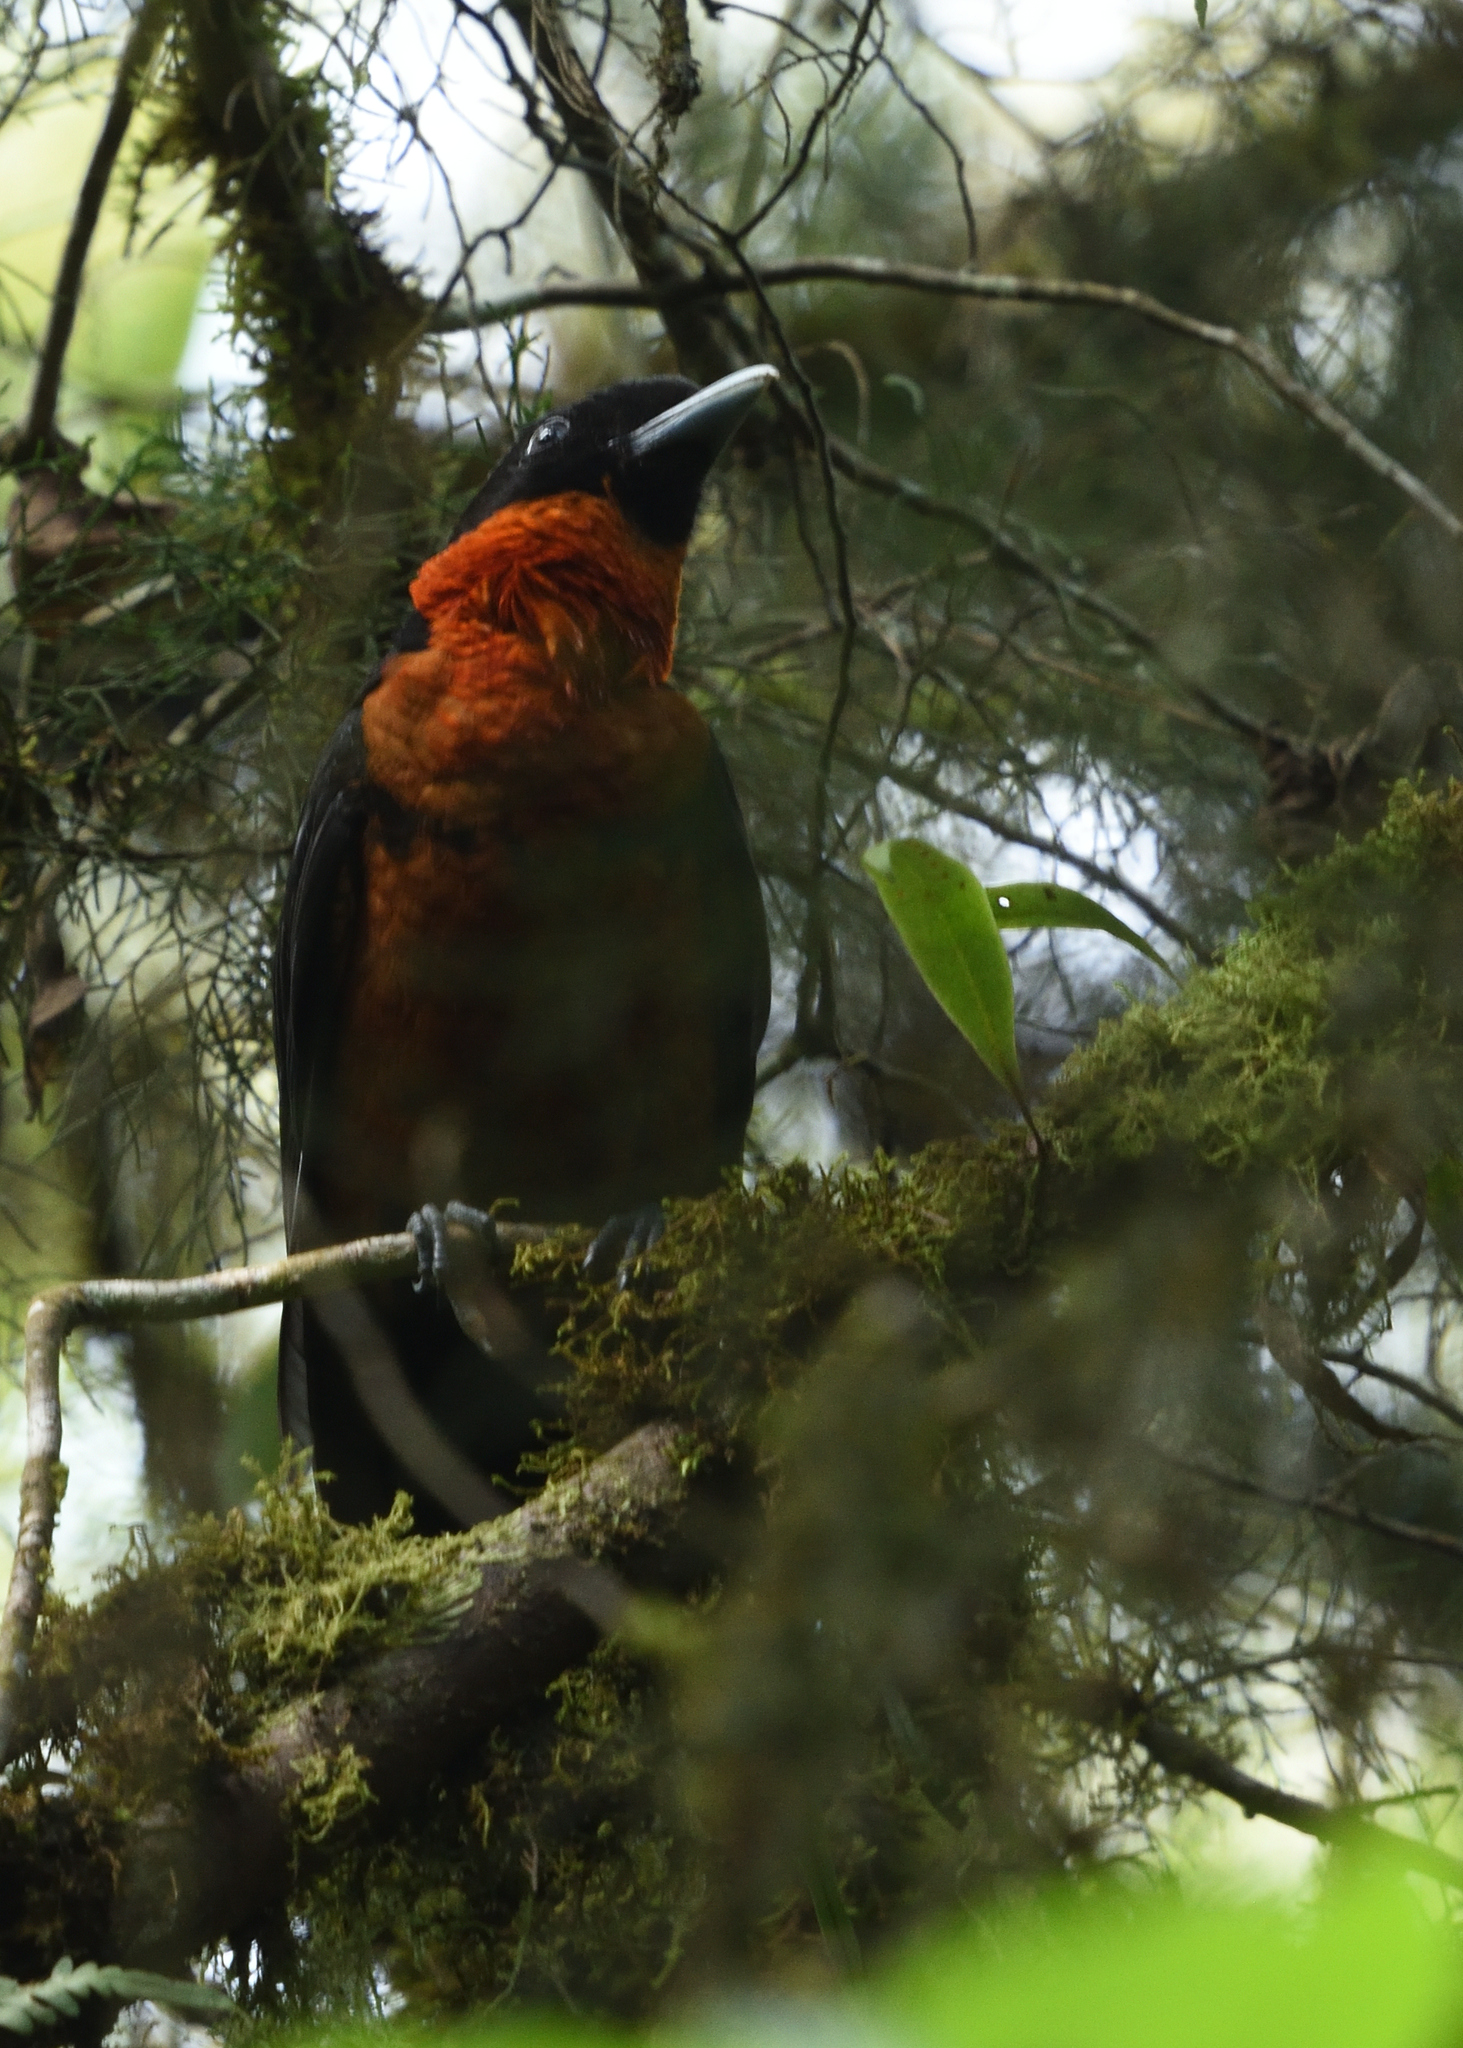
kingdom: Animalia
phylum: Chordata
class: Aves
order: Passeriformes
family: Cotingidae
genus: Pyroderus
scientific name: Pyroderus scutatus
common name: Red-ruffed fruitcrow
